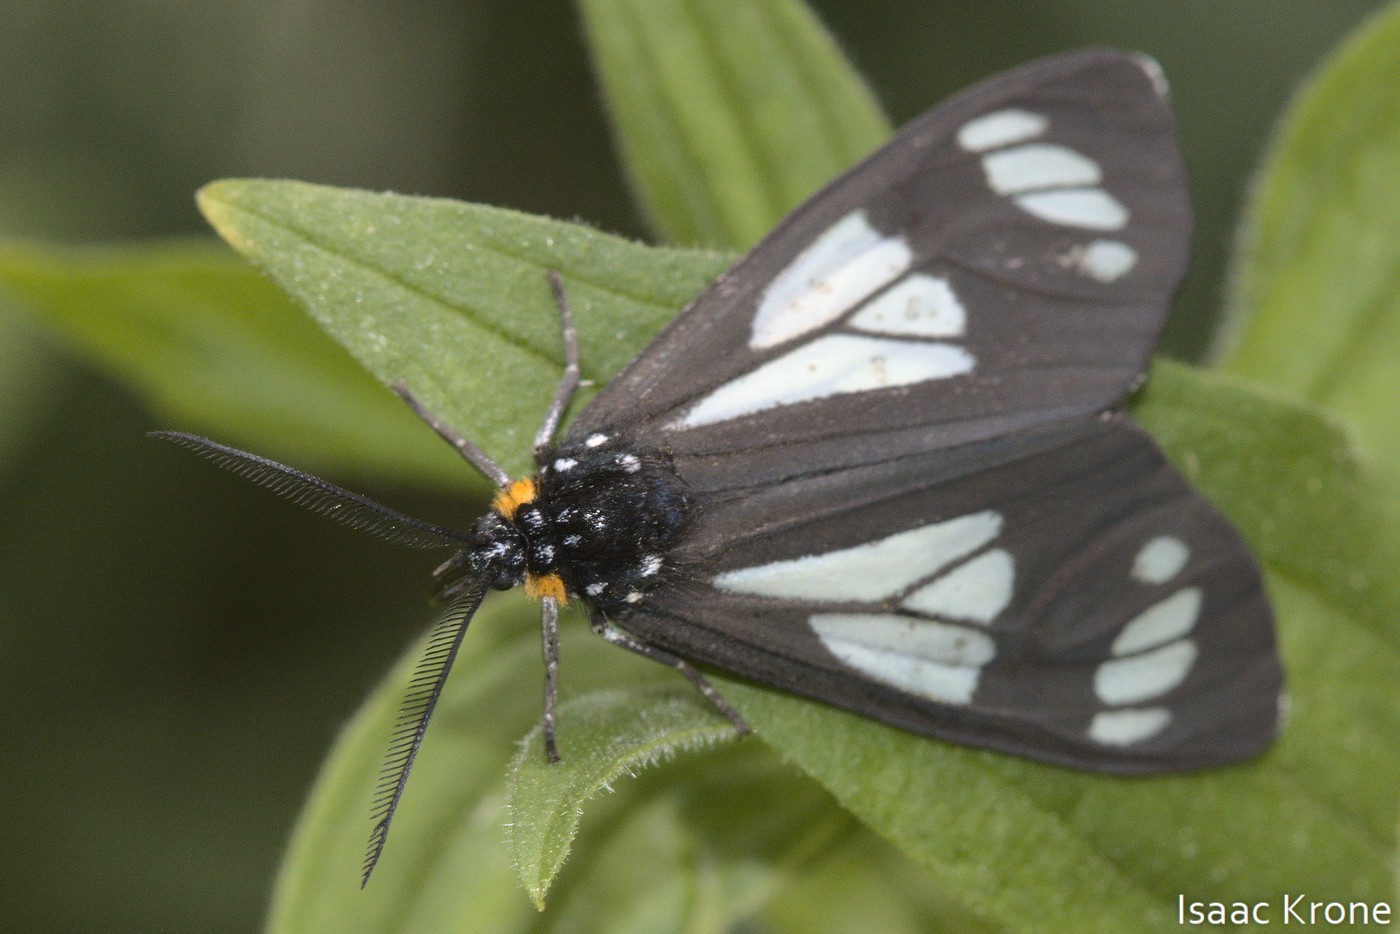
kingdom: Animalia
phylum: Arthropoda
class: Insecta
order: Lepidoptera
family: Erebidae
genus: Gnophaela
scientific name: Gnophaela vermiculata
